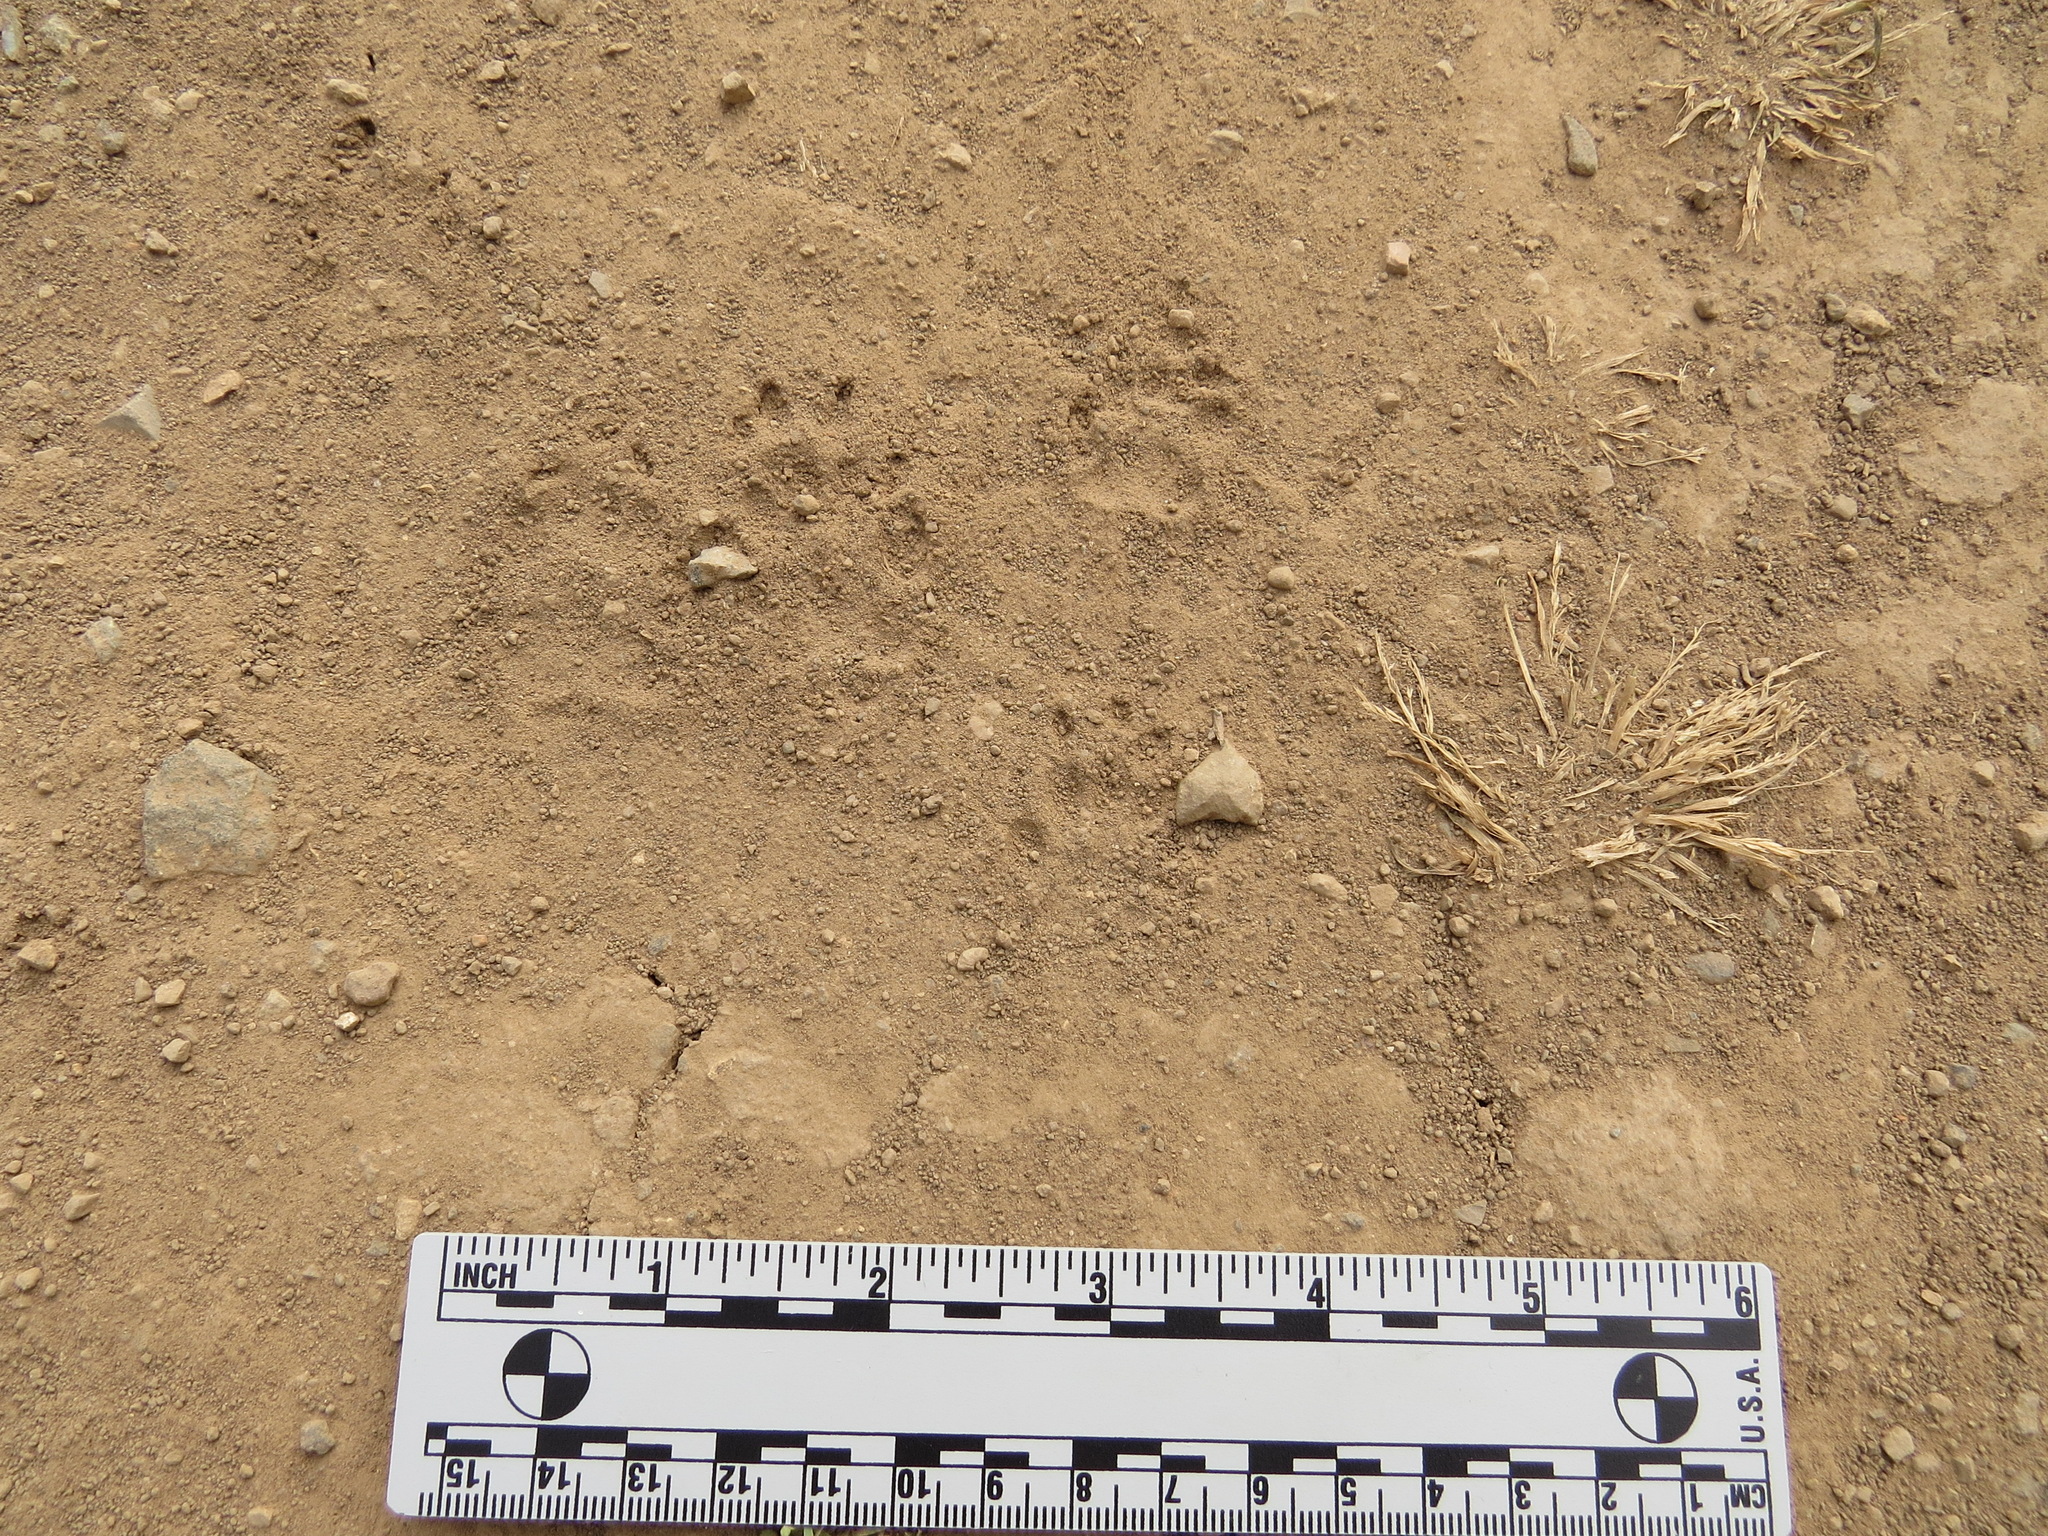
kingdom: Animalia
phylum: Chordata
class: Mammalia
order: Carnivora
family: Mephitidae
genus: Mephitis
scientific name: Mephitis mephitis
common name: Striped skunk
